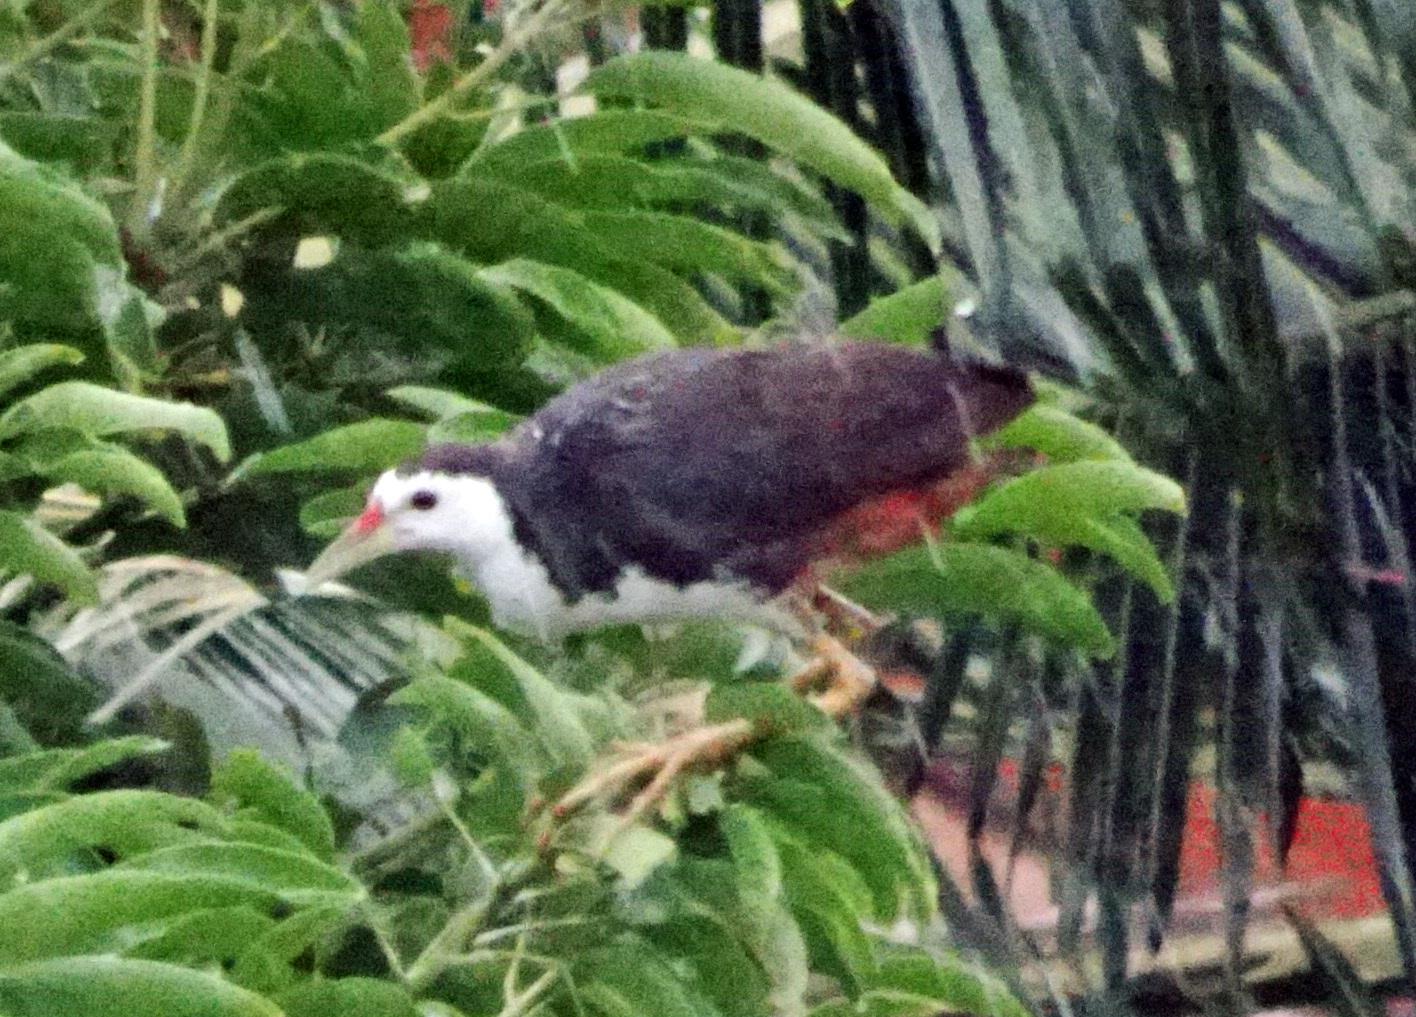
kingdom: Animalia
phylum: Chordata
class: Aves
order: Gruiformes
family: Rallidae
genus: Amaurornis
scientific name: Amaurornis phoenicurus
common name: White-breasted waterhen
